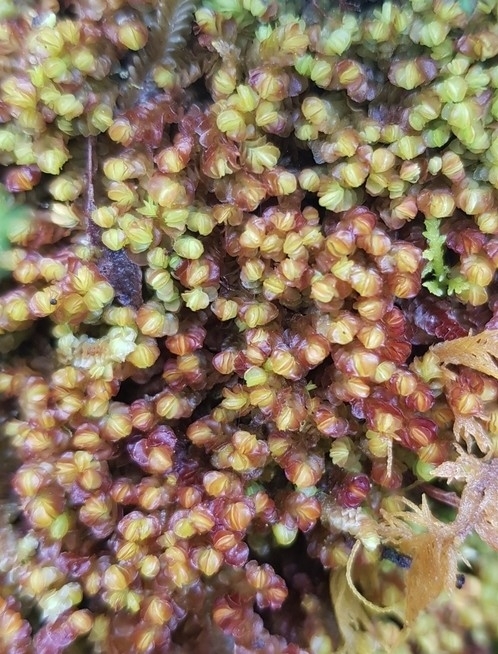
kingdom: Plantae
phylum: Marchantiophyta
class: Jungermanniopsida
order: Jungermanniales
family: Myliaceae
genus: Mylia
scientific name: Mylia taylorii
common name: Taylor s flapwort
